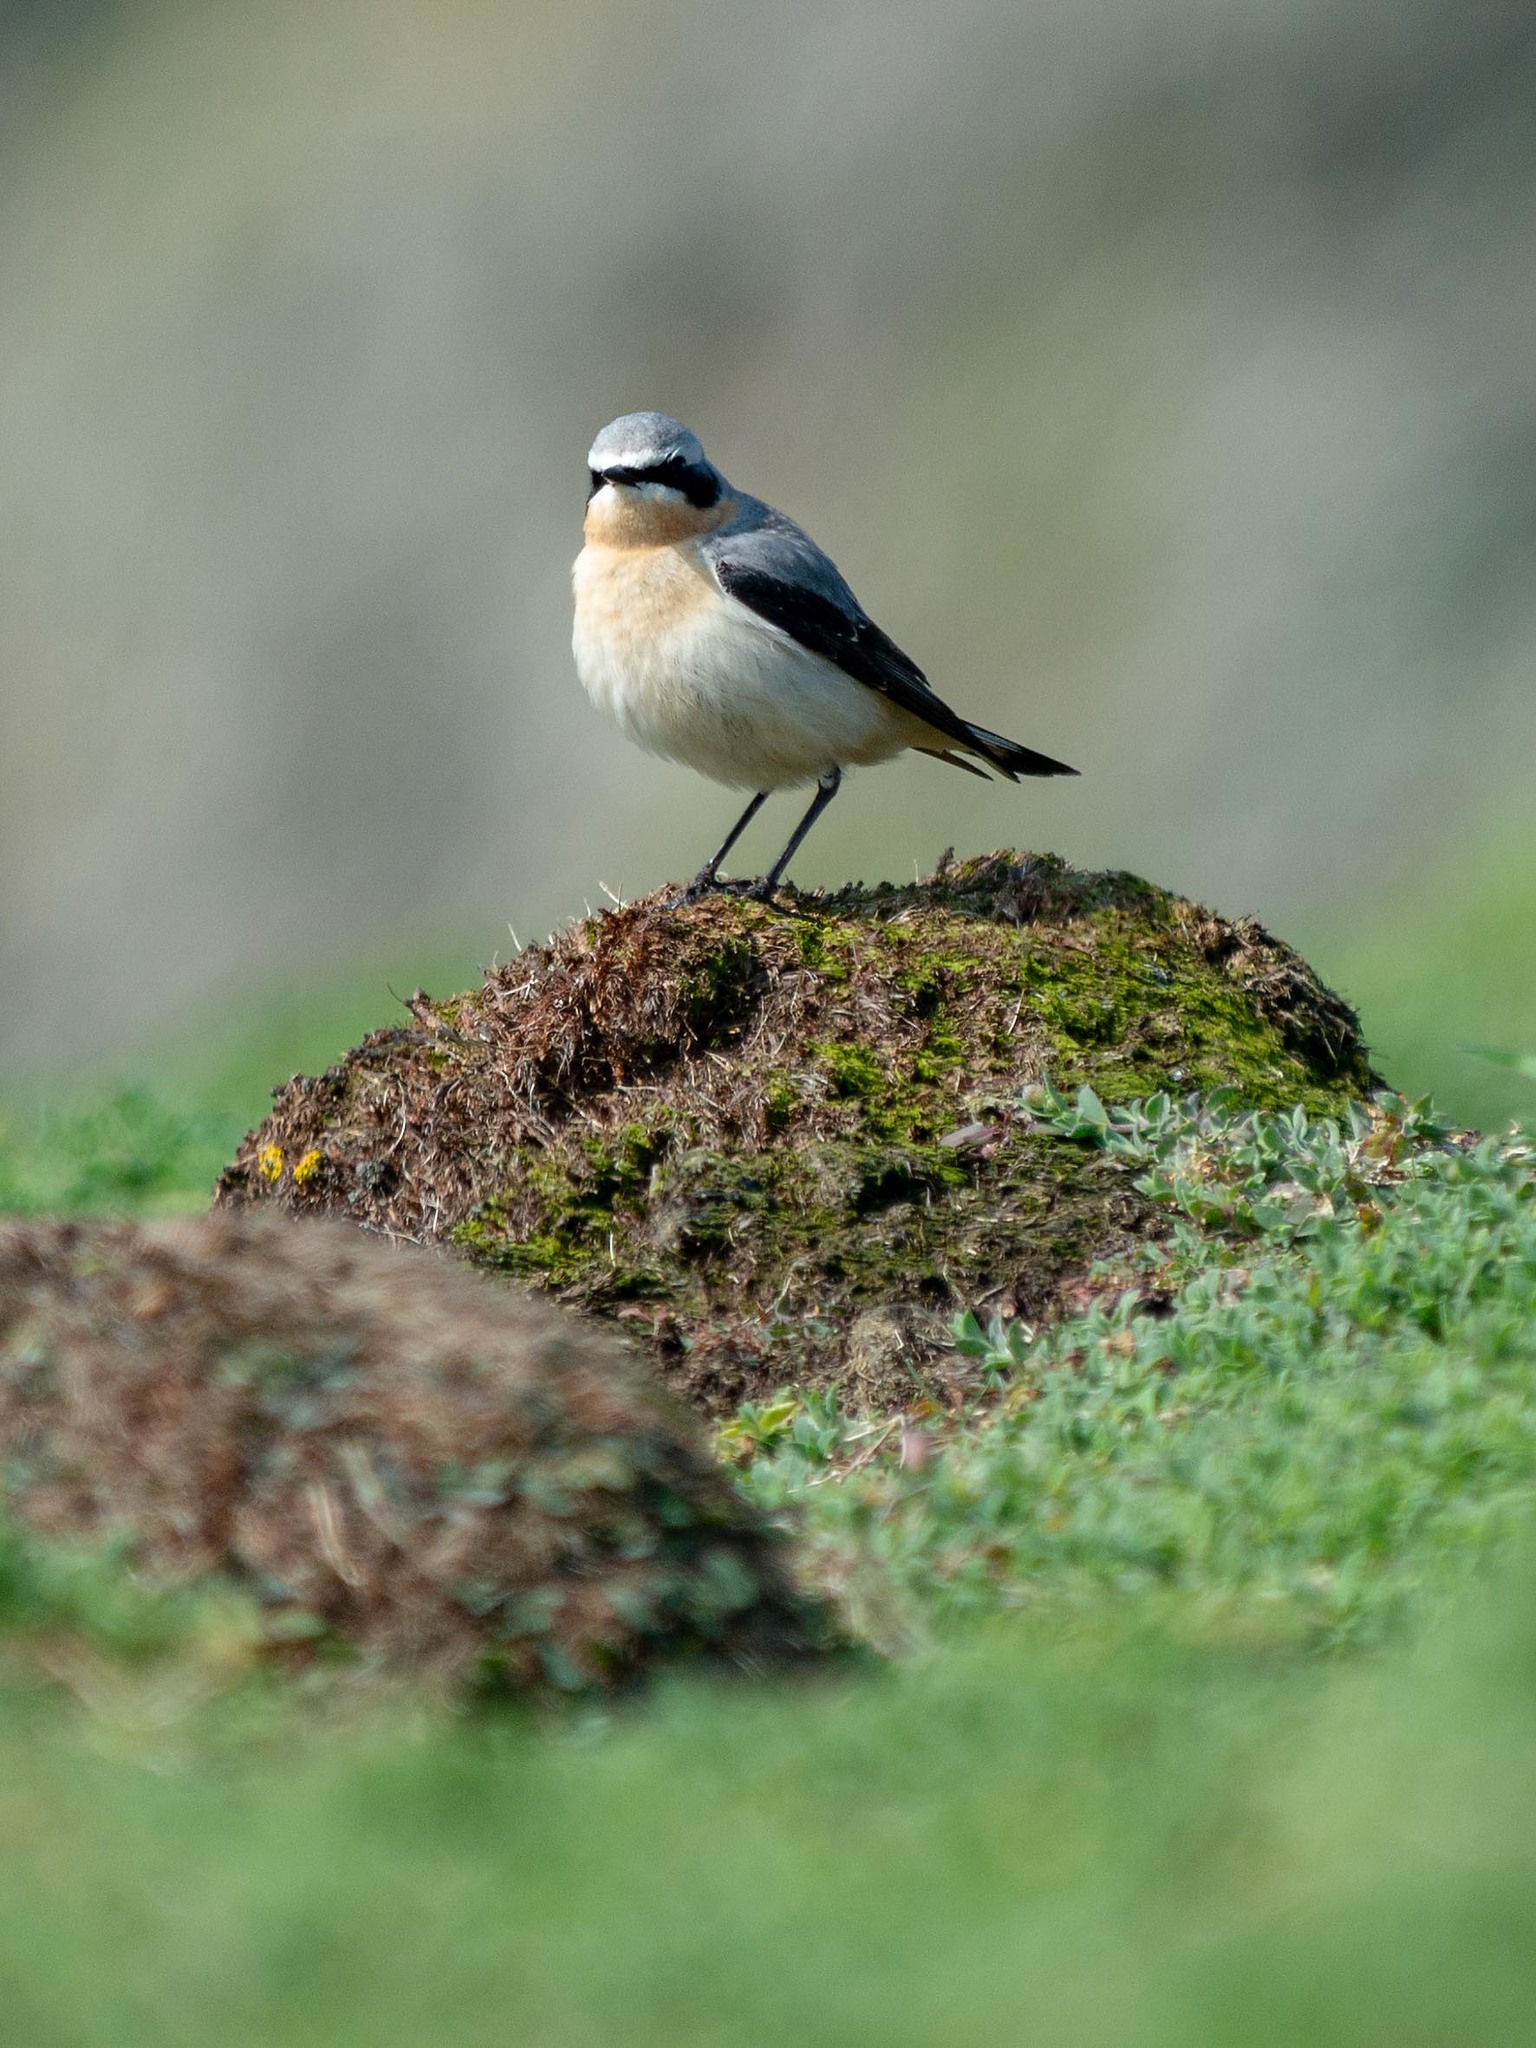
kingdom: Animalia
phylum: Chordata
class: Aves
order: Passeriformes
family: Muscicapidae
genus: Oenanthe
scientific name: Oenanthe oenanthe
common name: Northern wheatear
